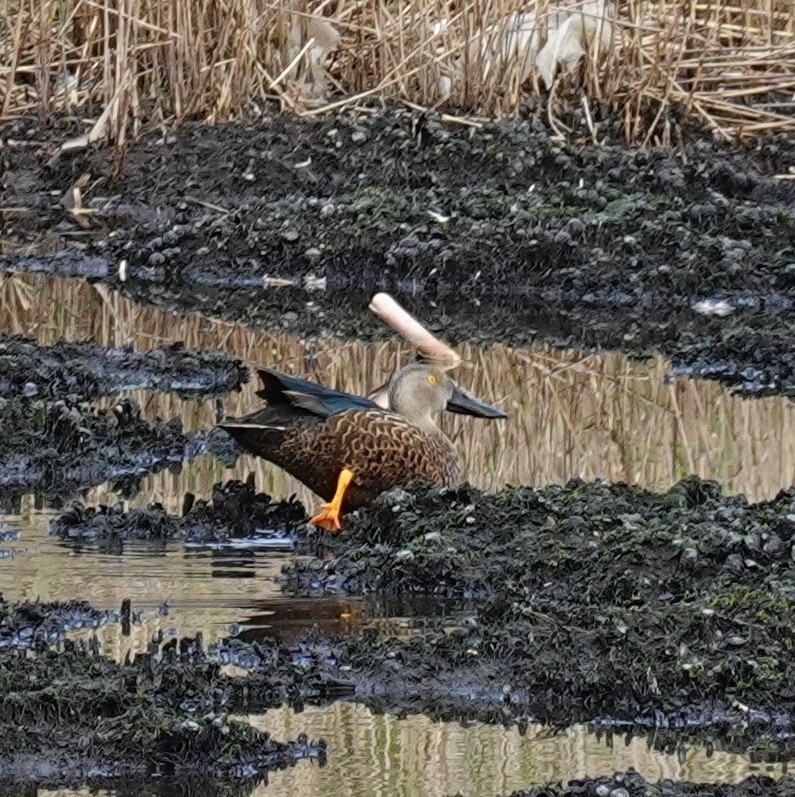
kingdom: Animalia
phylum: Chordata
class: Aves
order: Anseriformes
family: Anatidae
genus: Spatula
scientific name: Spatula smithii
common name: Cape shoveler
